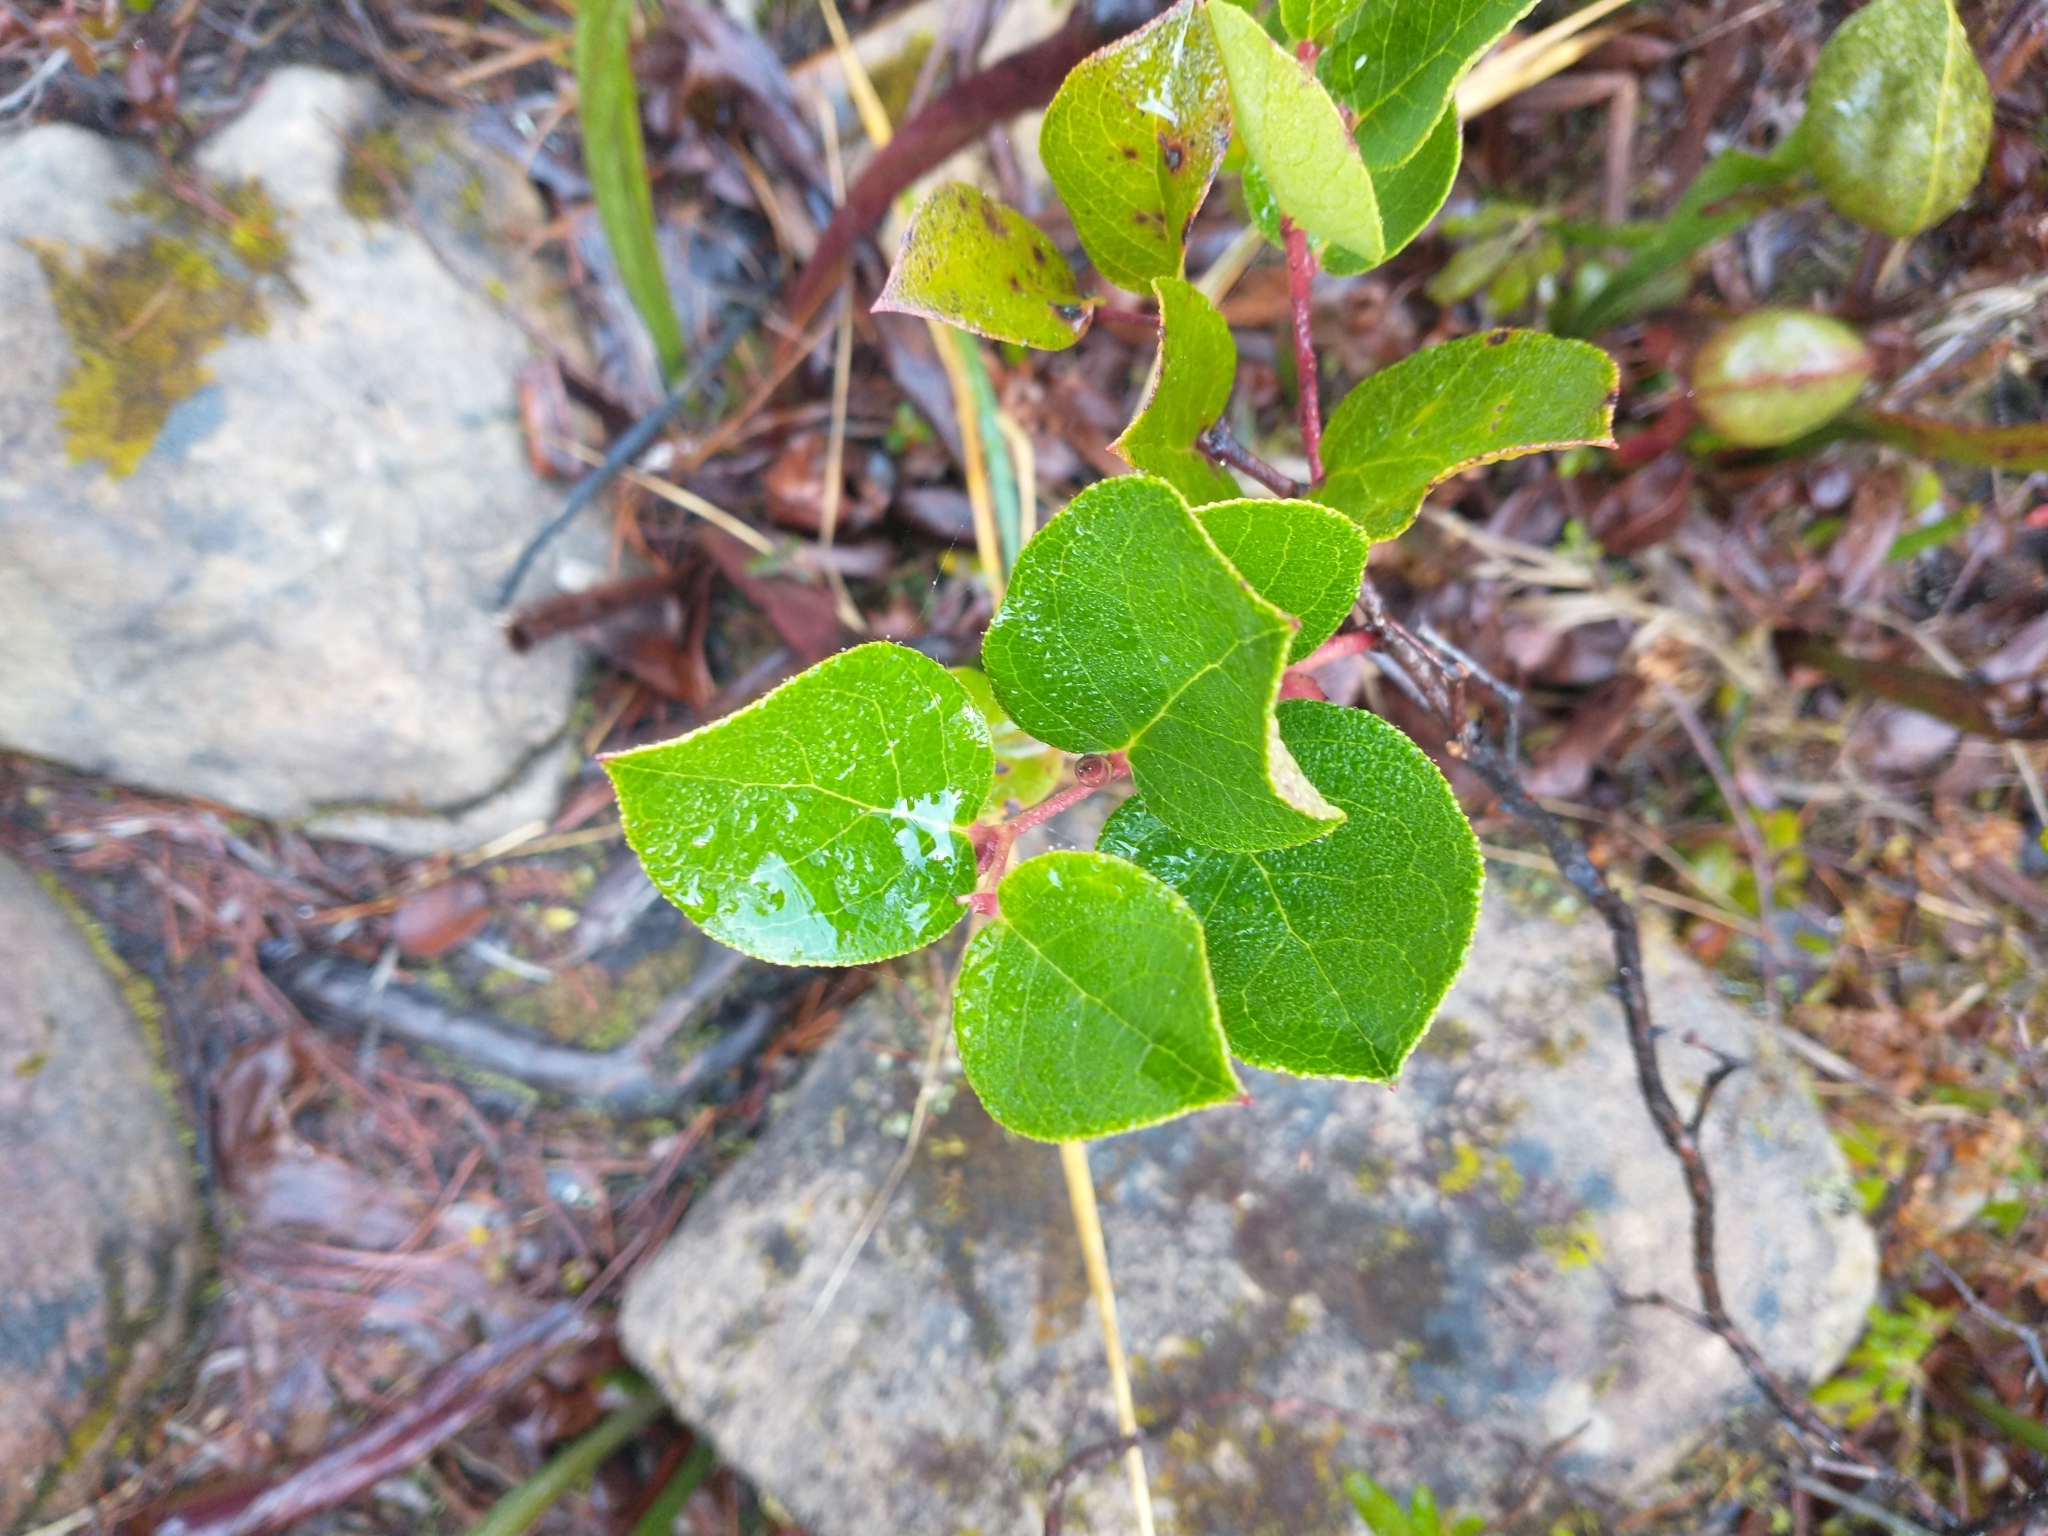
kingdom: Plantae
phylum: Tracheophyta
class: Magnoliopsida
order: Ericales
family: Ericaceae
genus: Gaultheria
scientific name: Gaultheria shallon
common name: Shallon
